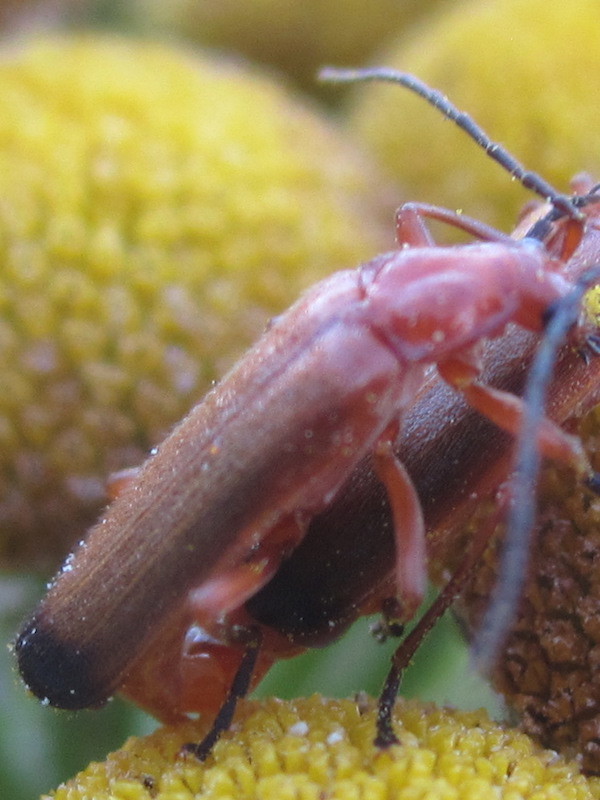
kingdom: Animalia
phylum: Arthropoda
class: Insecta
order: Coleoptera
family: Cantharidae
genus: Rhagonycha
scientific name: Rhagonycha fulva
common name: Common red soldier beetle
